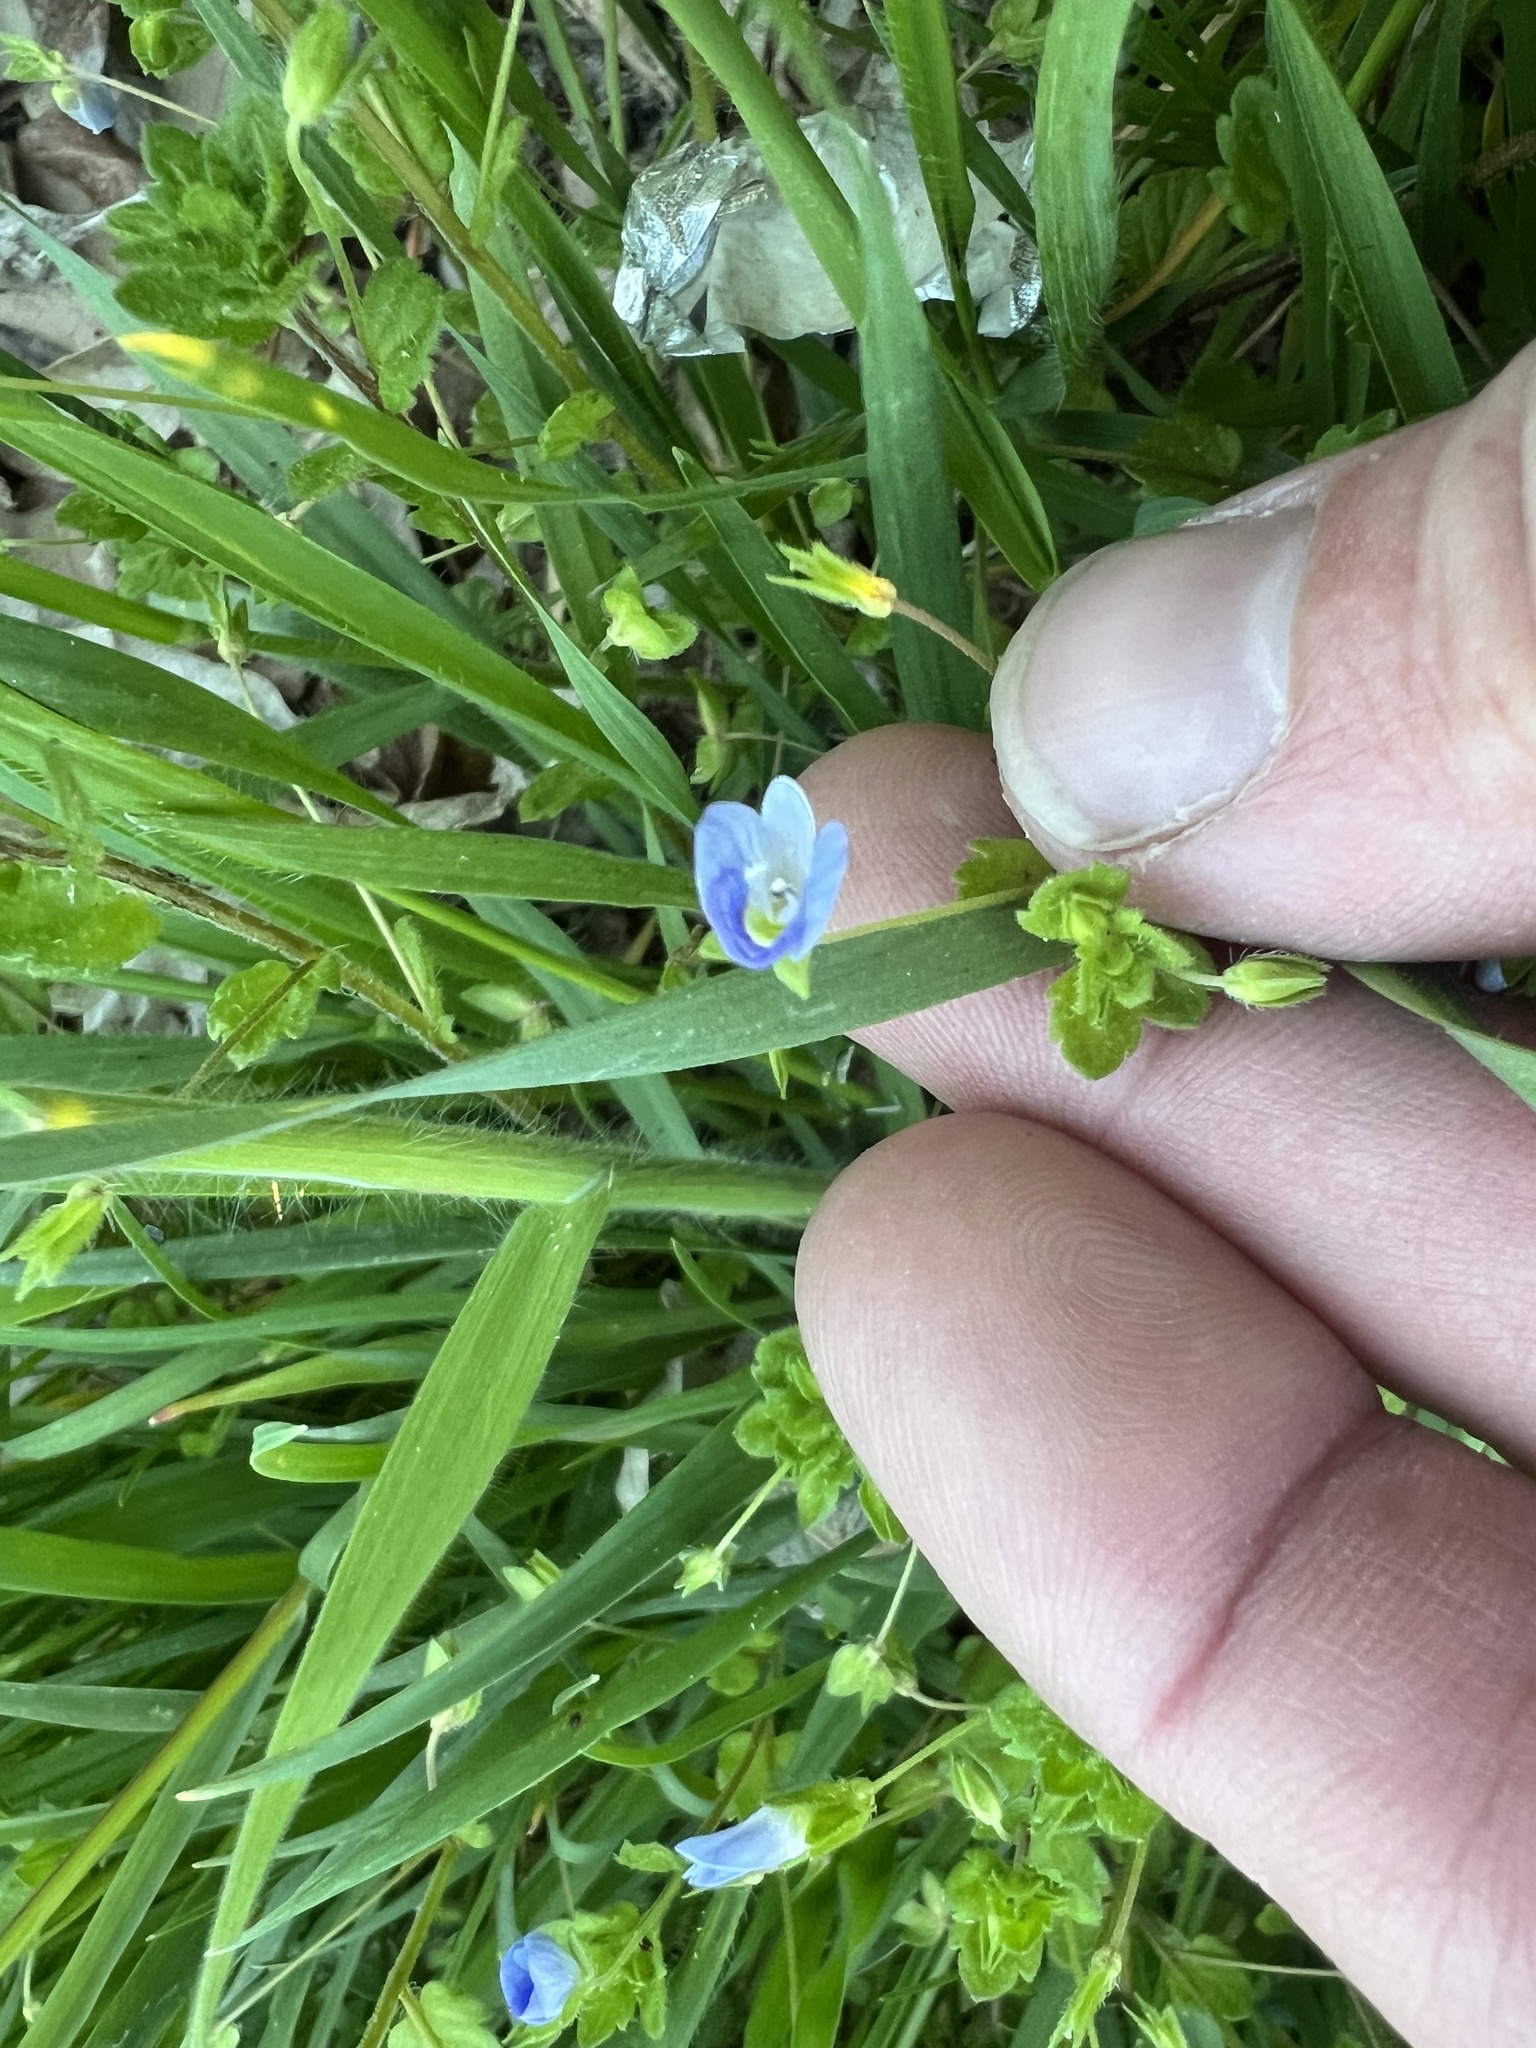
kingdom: Plantae
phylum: Tracheophyta
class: Magnoliopsida
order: Lamiales
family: Plantaginaceae
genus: Veronica
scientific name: Veronica persica
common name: Common field-speedwell
